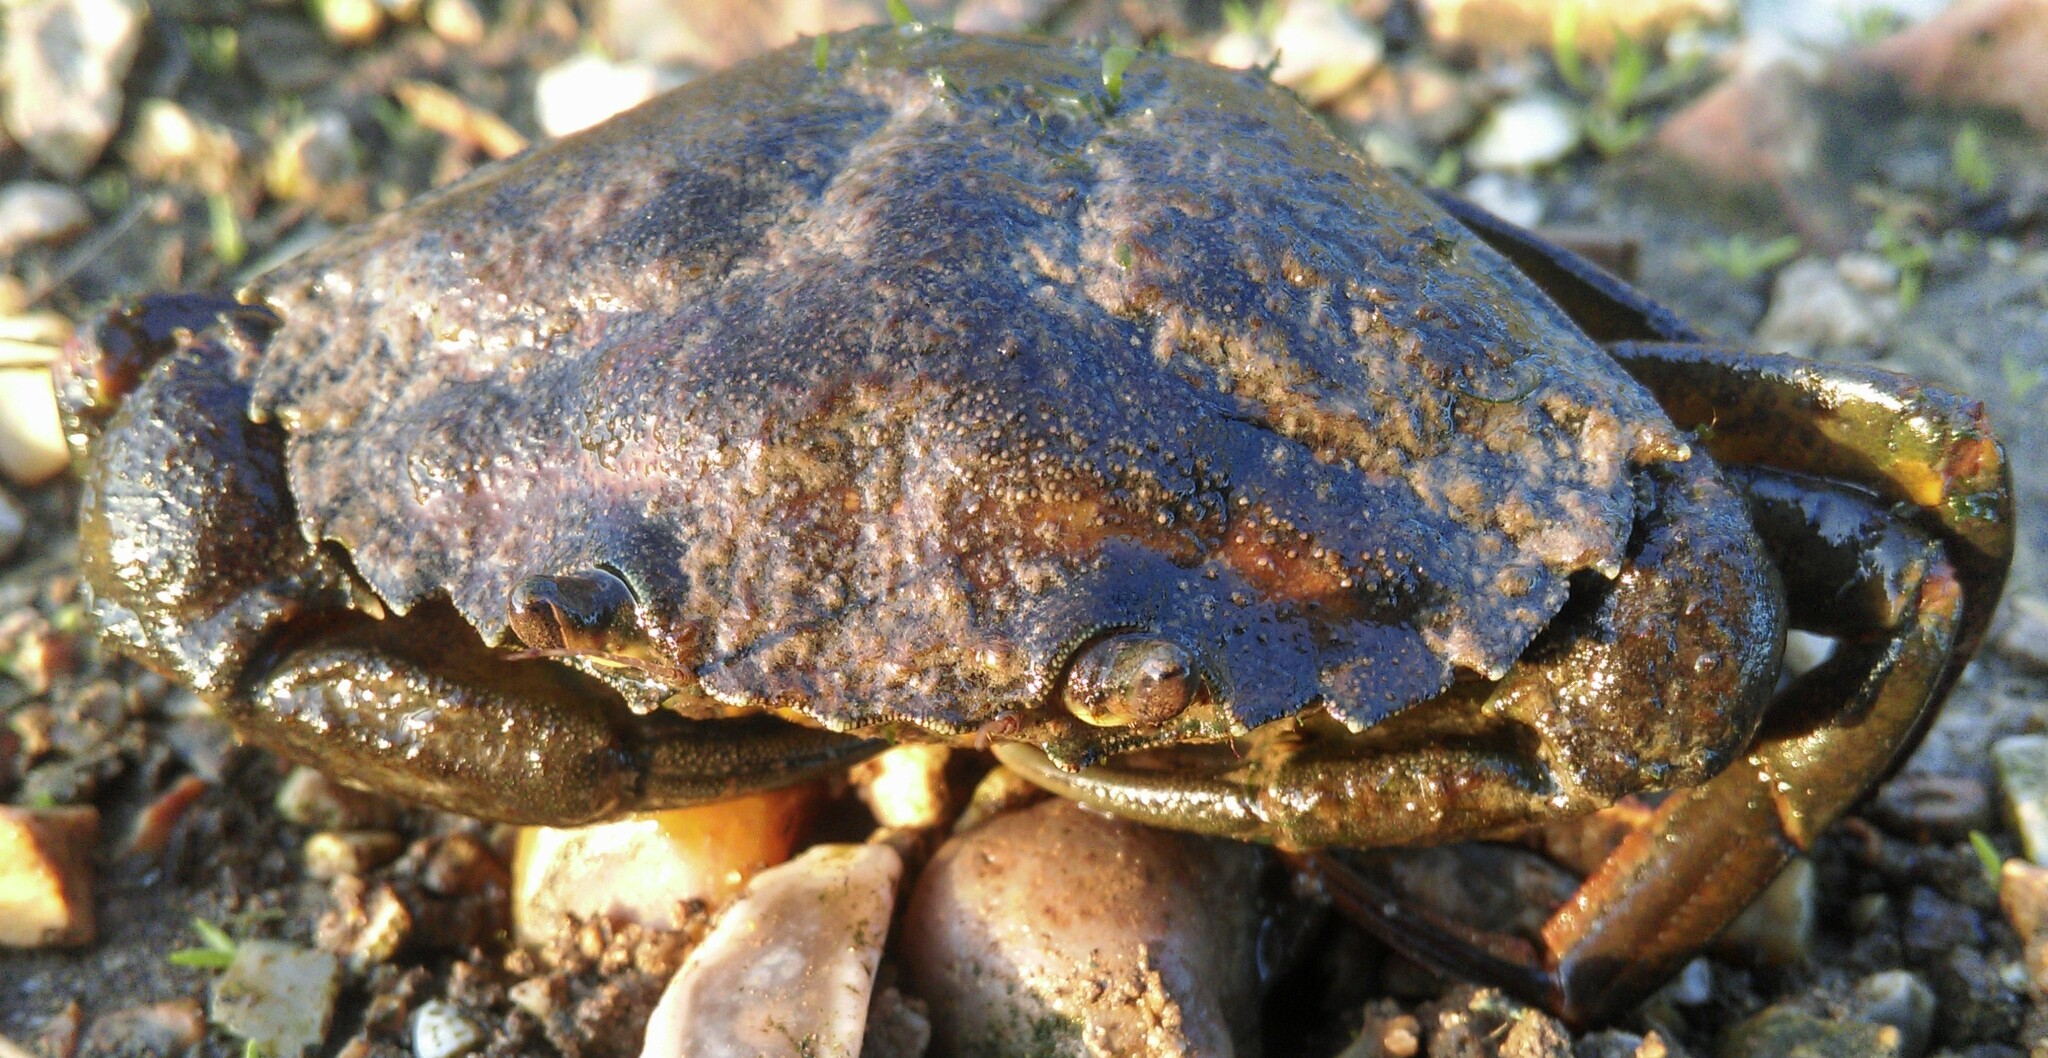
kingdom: Animalia
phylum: Arthropoda
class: Malacostraca
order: Decapoda
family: Carcinidae
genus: Carcinus
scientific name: Carcinus maenas
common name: European green crab
